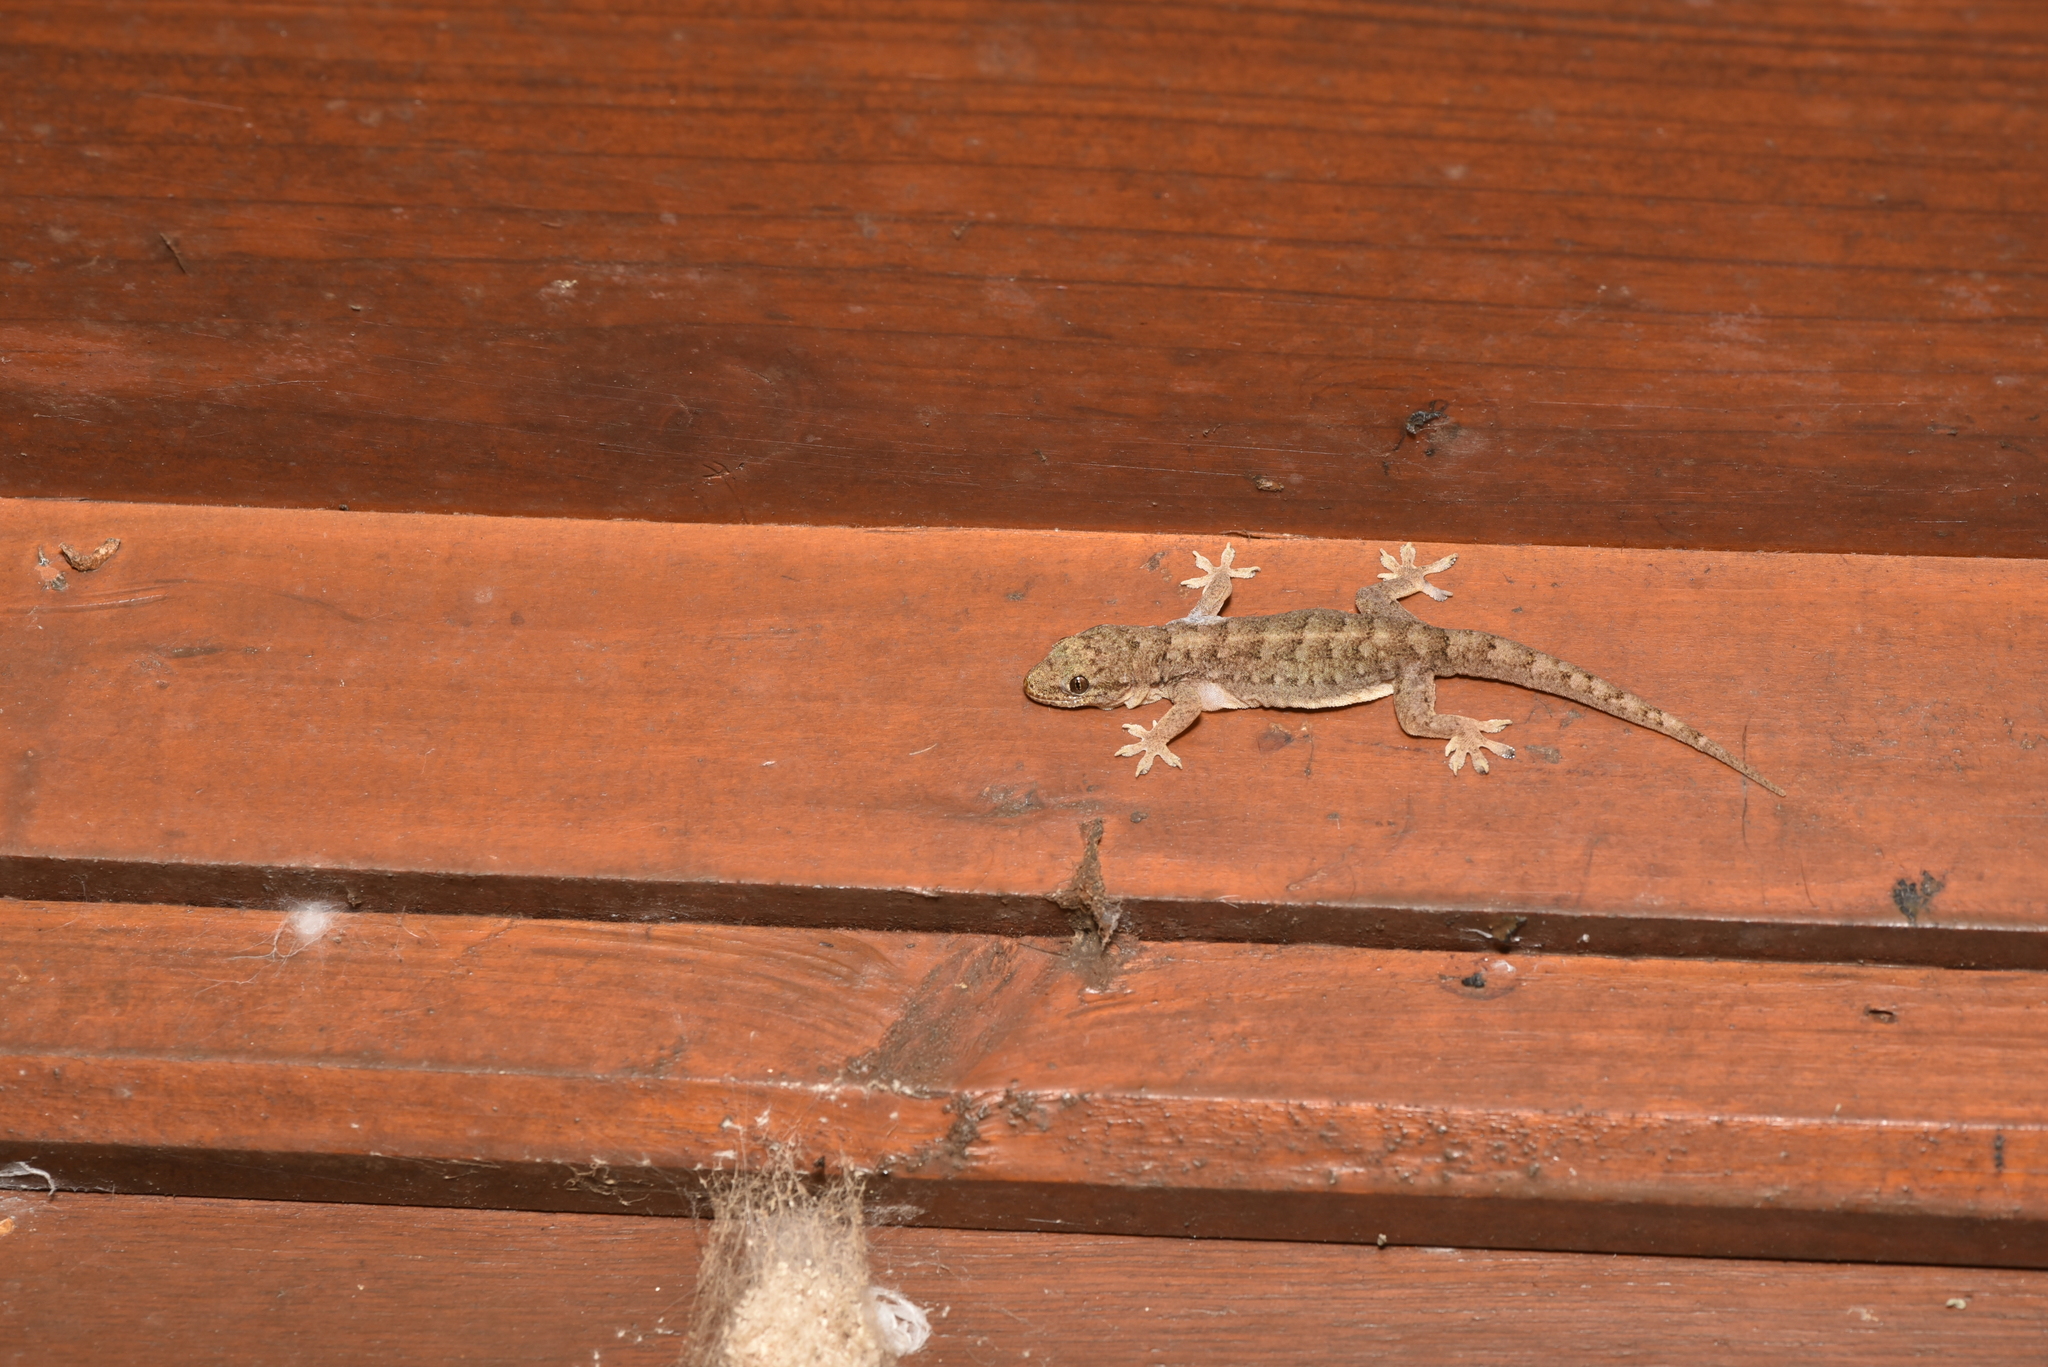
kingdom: Animalia
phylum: Chordata
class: Squamata
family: Gekkonidae
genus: Hemidactylus
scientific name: Hemidactylus bowringii
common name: Oriental leaf-toed gecko
